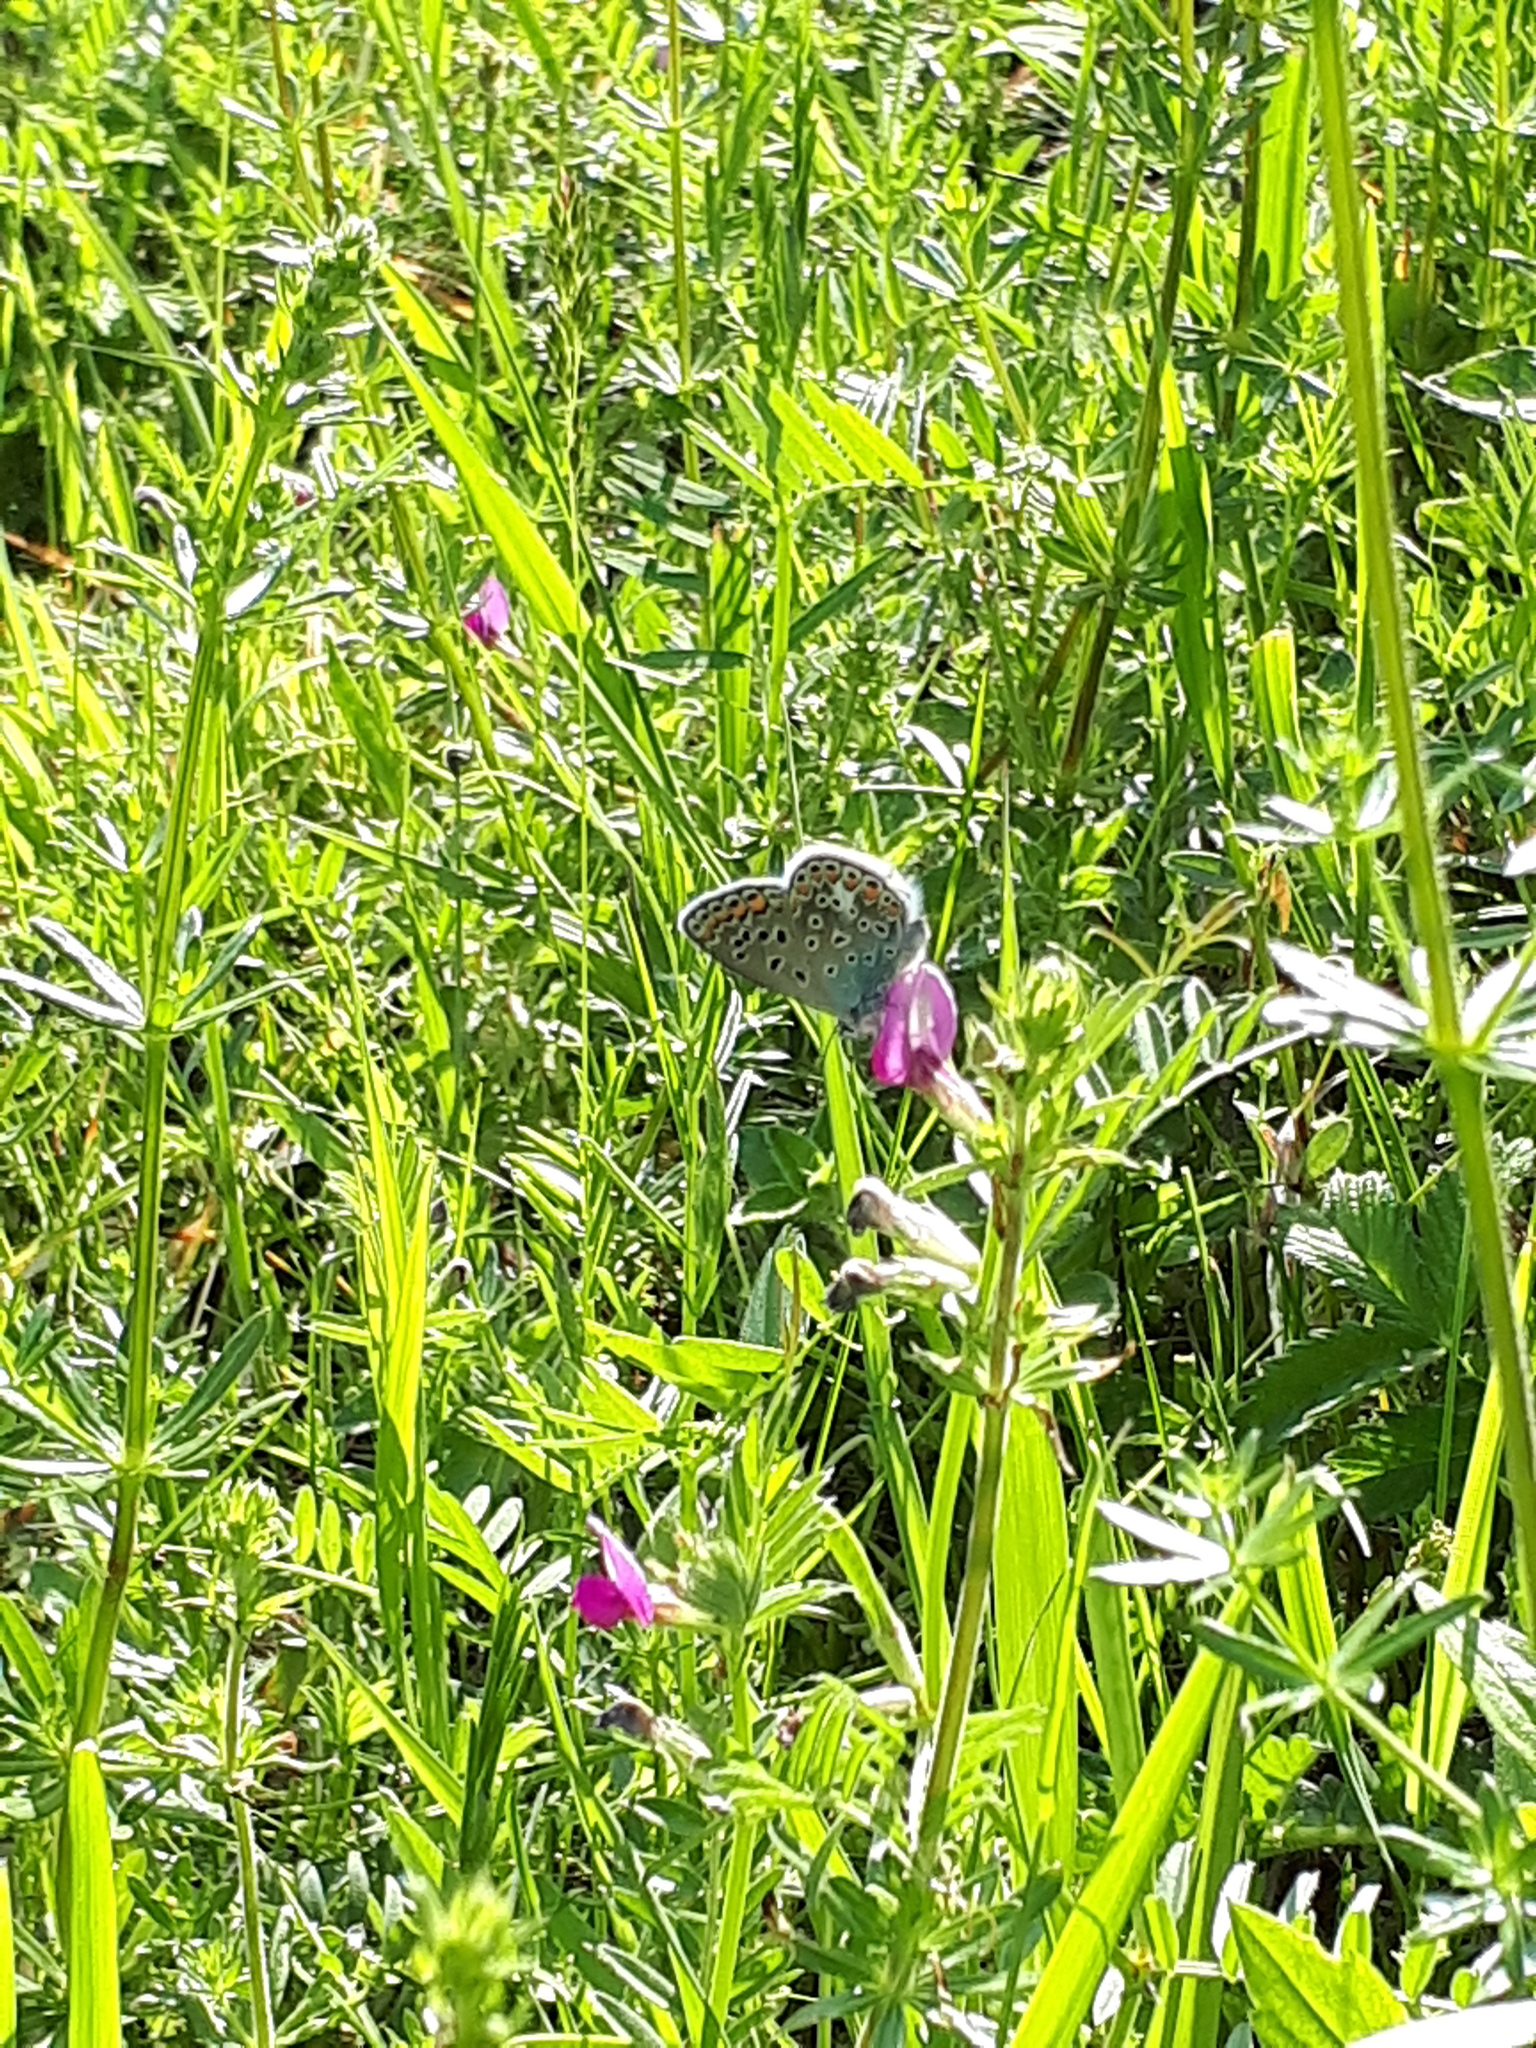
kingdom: Animalia
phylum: Arthropoda
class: Insecta
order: Lepidoptera
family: Lycaenidae
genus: Polyommatus
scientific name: Polyommatus icarus
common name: Common blue
